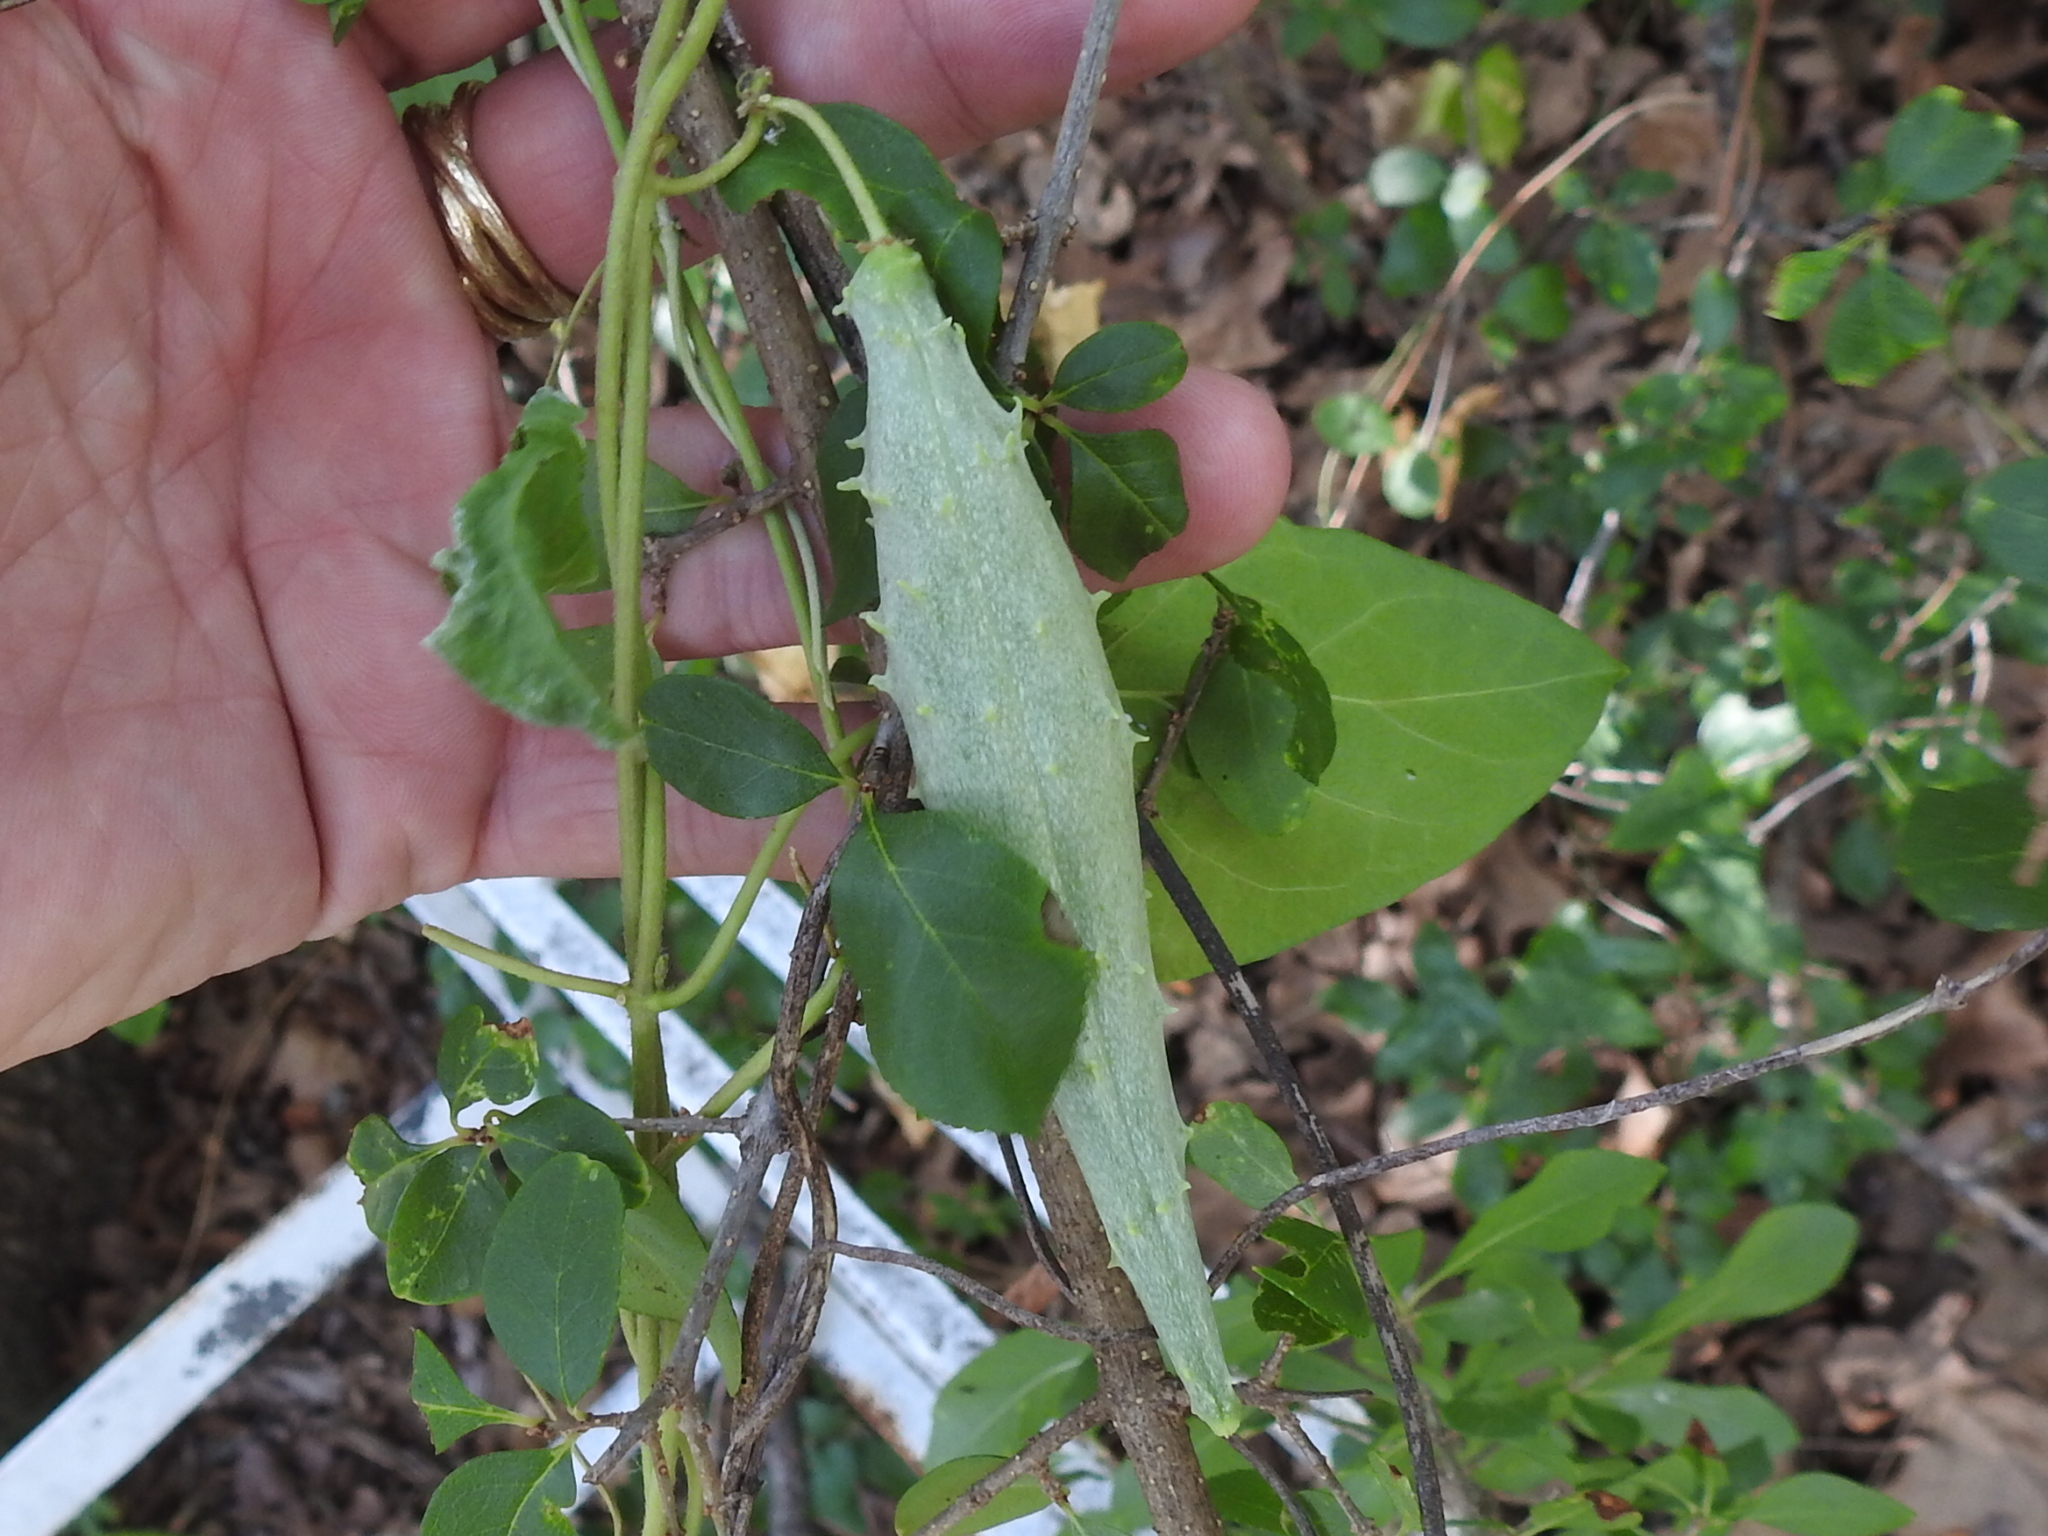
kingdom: Plantae
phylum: Tracheophyta
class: Magnoliopsida
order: Gentianales
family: Apocynaceae
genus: Matelea
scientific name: Matelea edwardsensis
